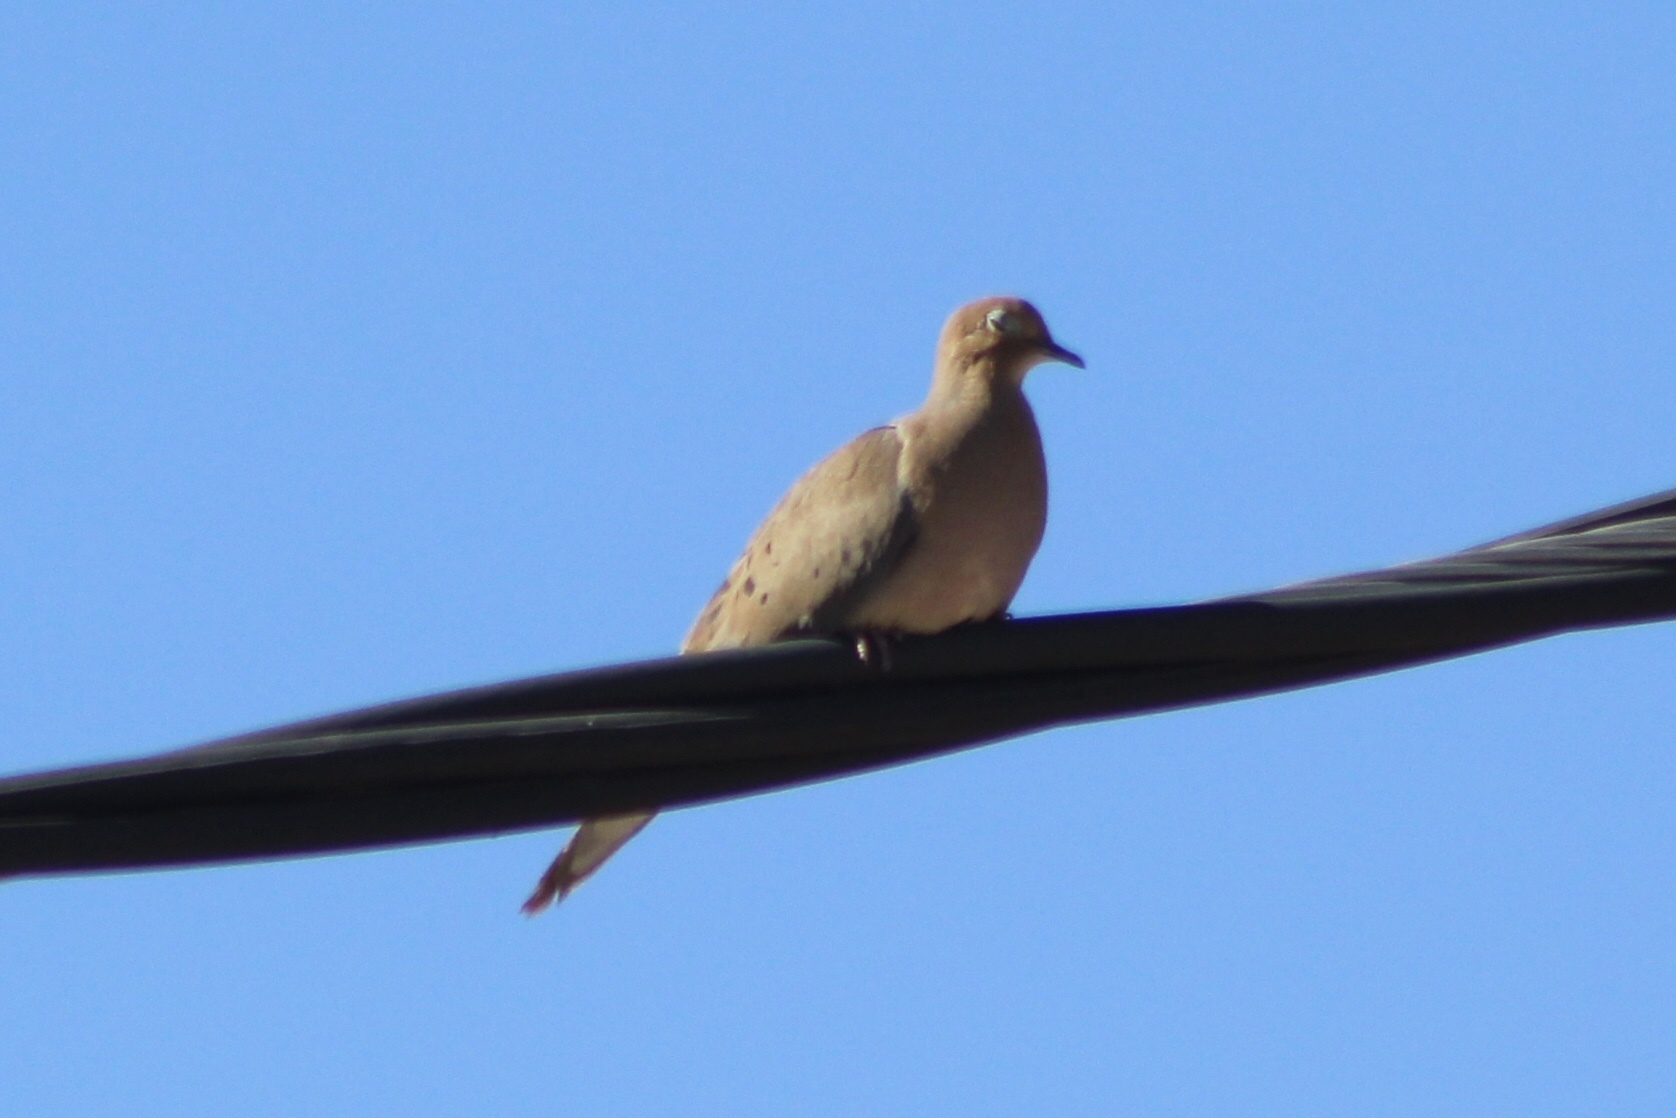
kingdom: Animalia
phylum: Chordata
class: Aves
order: Columbiformes
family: Columbidae
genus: Zenaida
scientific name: Zenaida macroura
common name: Mourning dove
